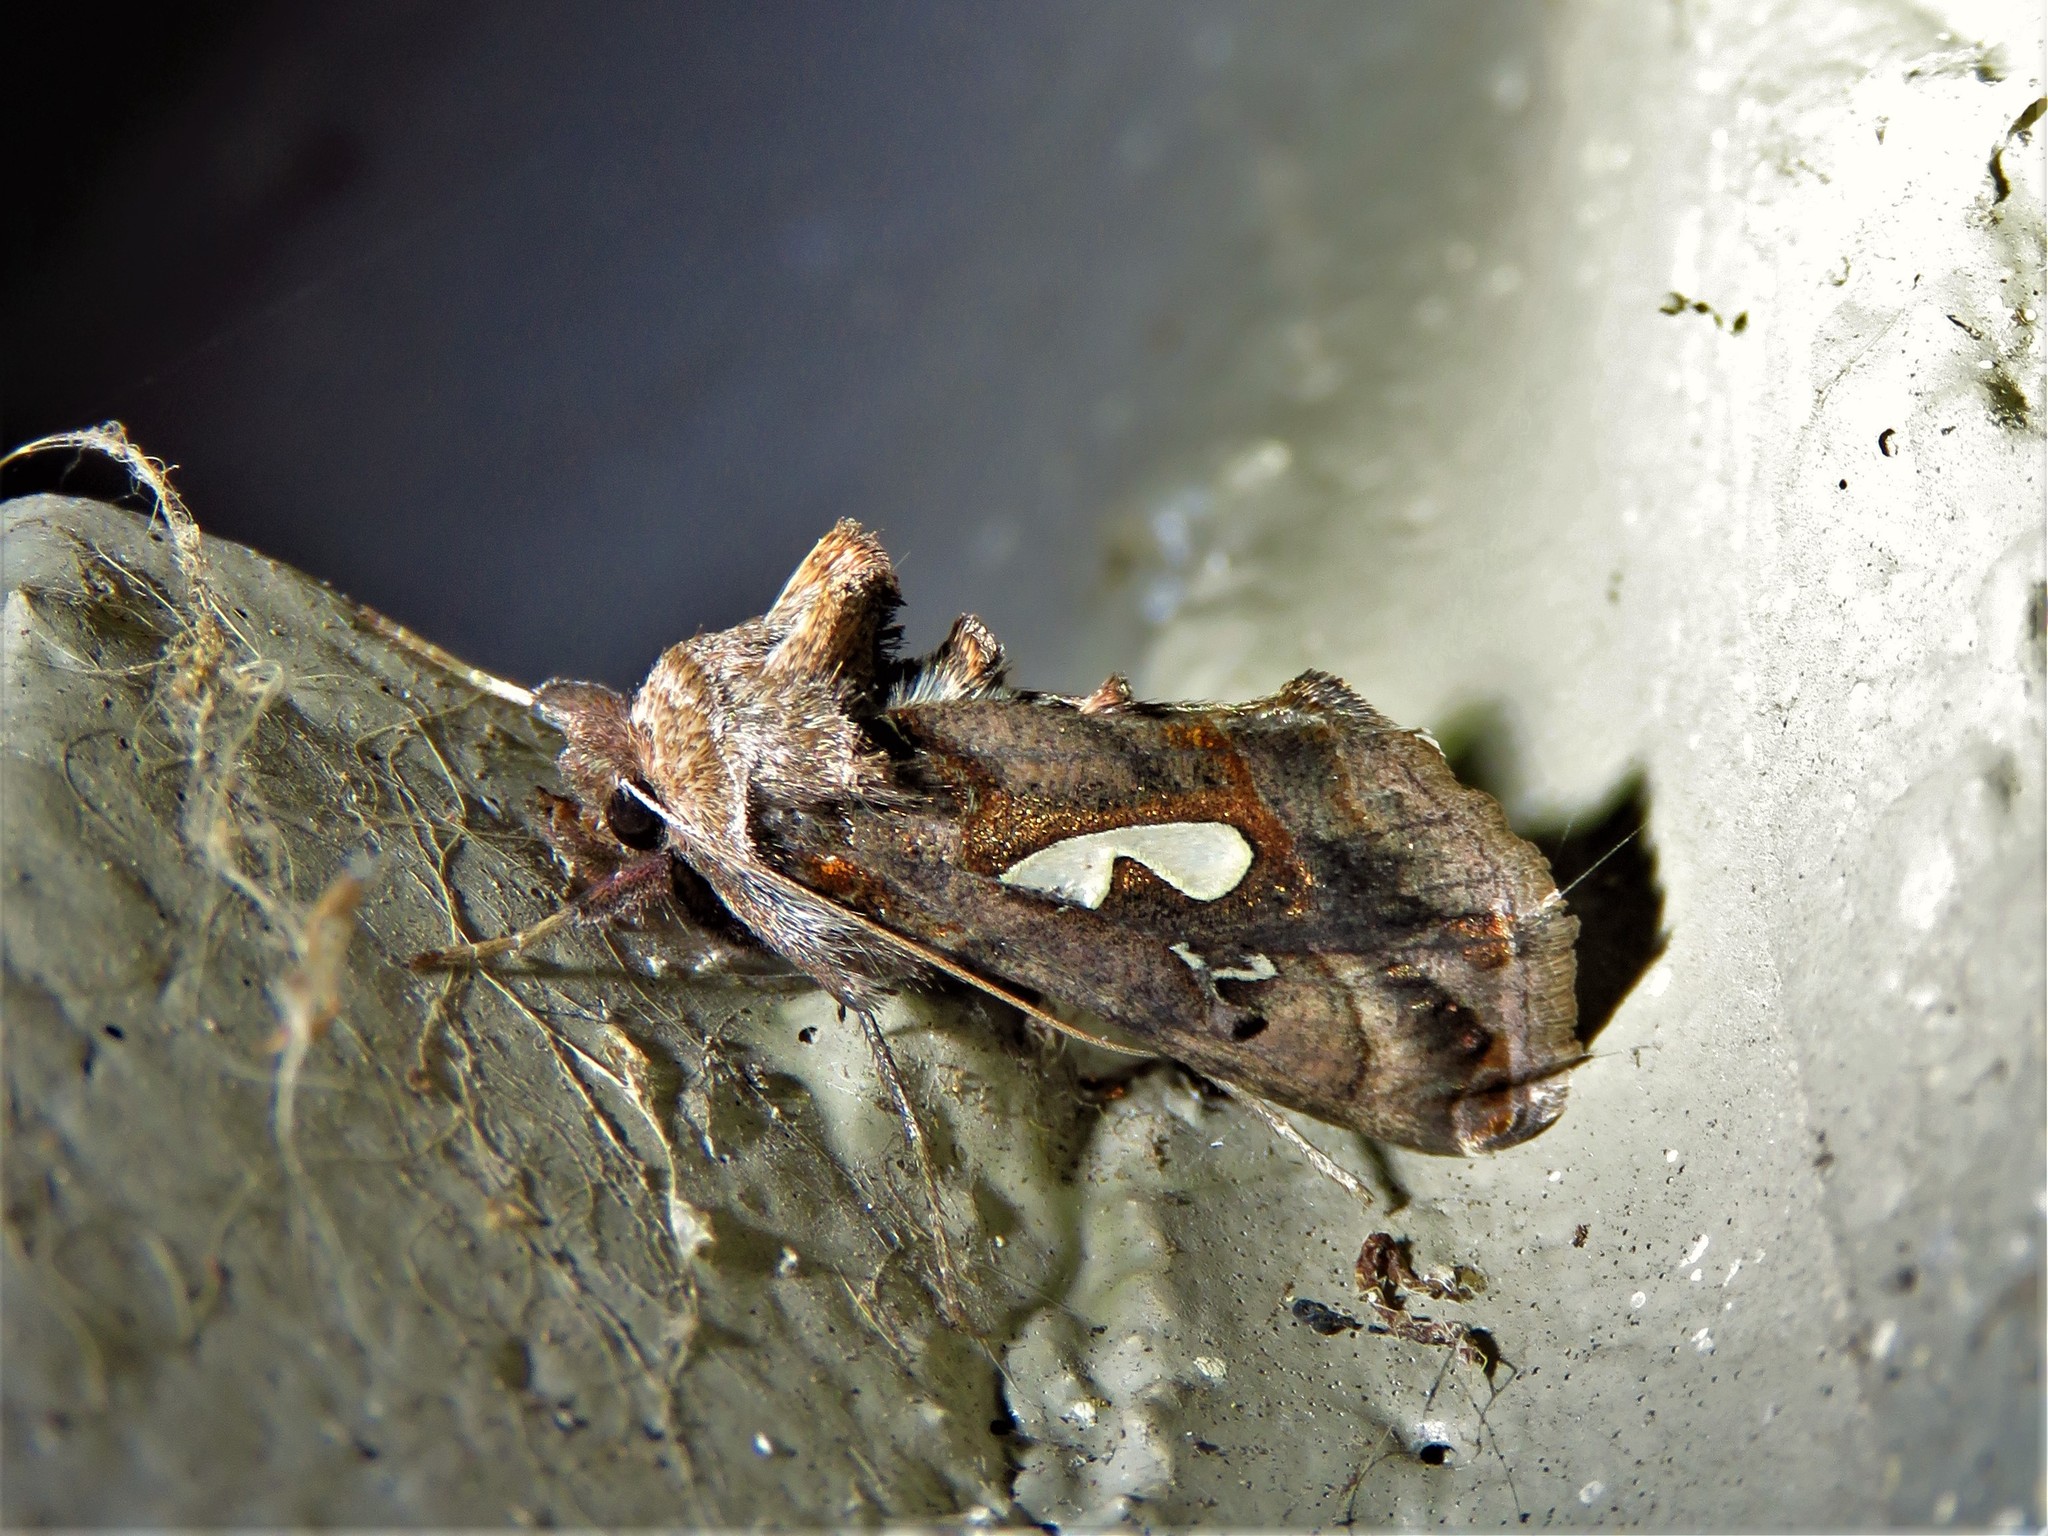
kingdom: Animalia
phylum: Arthropoda
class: Insecta
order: Lepidoptera
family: Noctuidae
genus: Megalographa
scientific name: Megalographa biloba
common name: Cutworm
